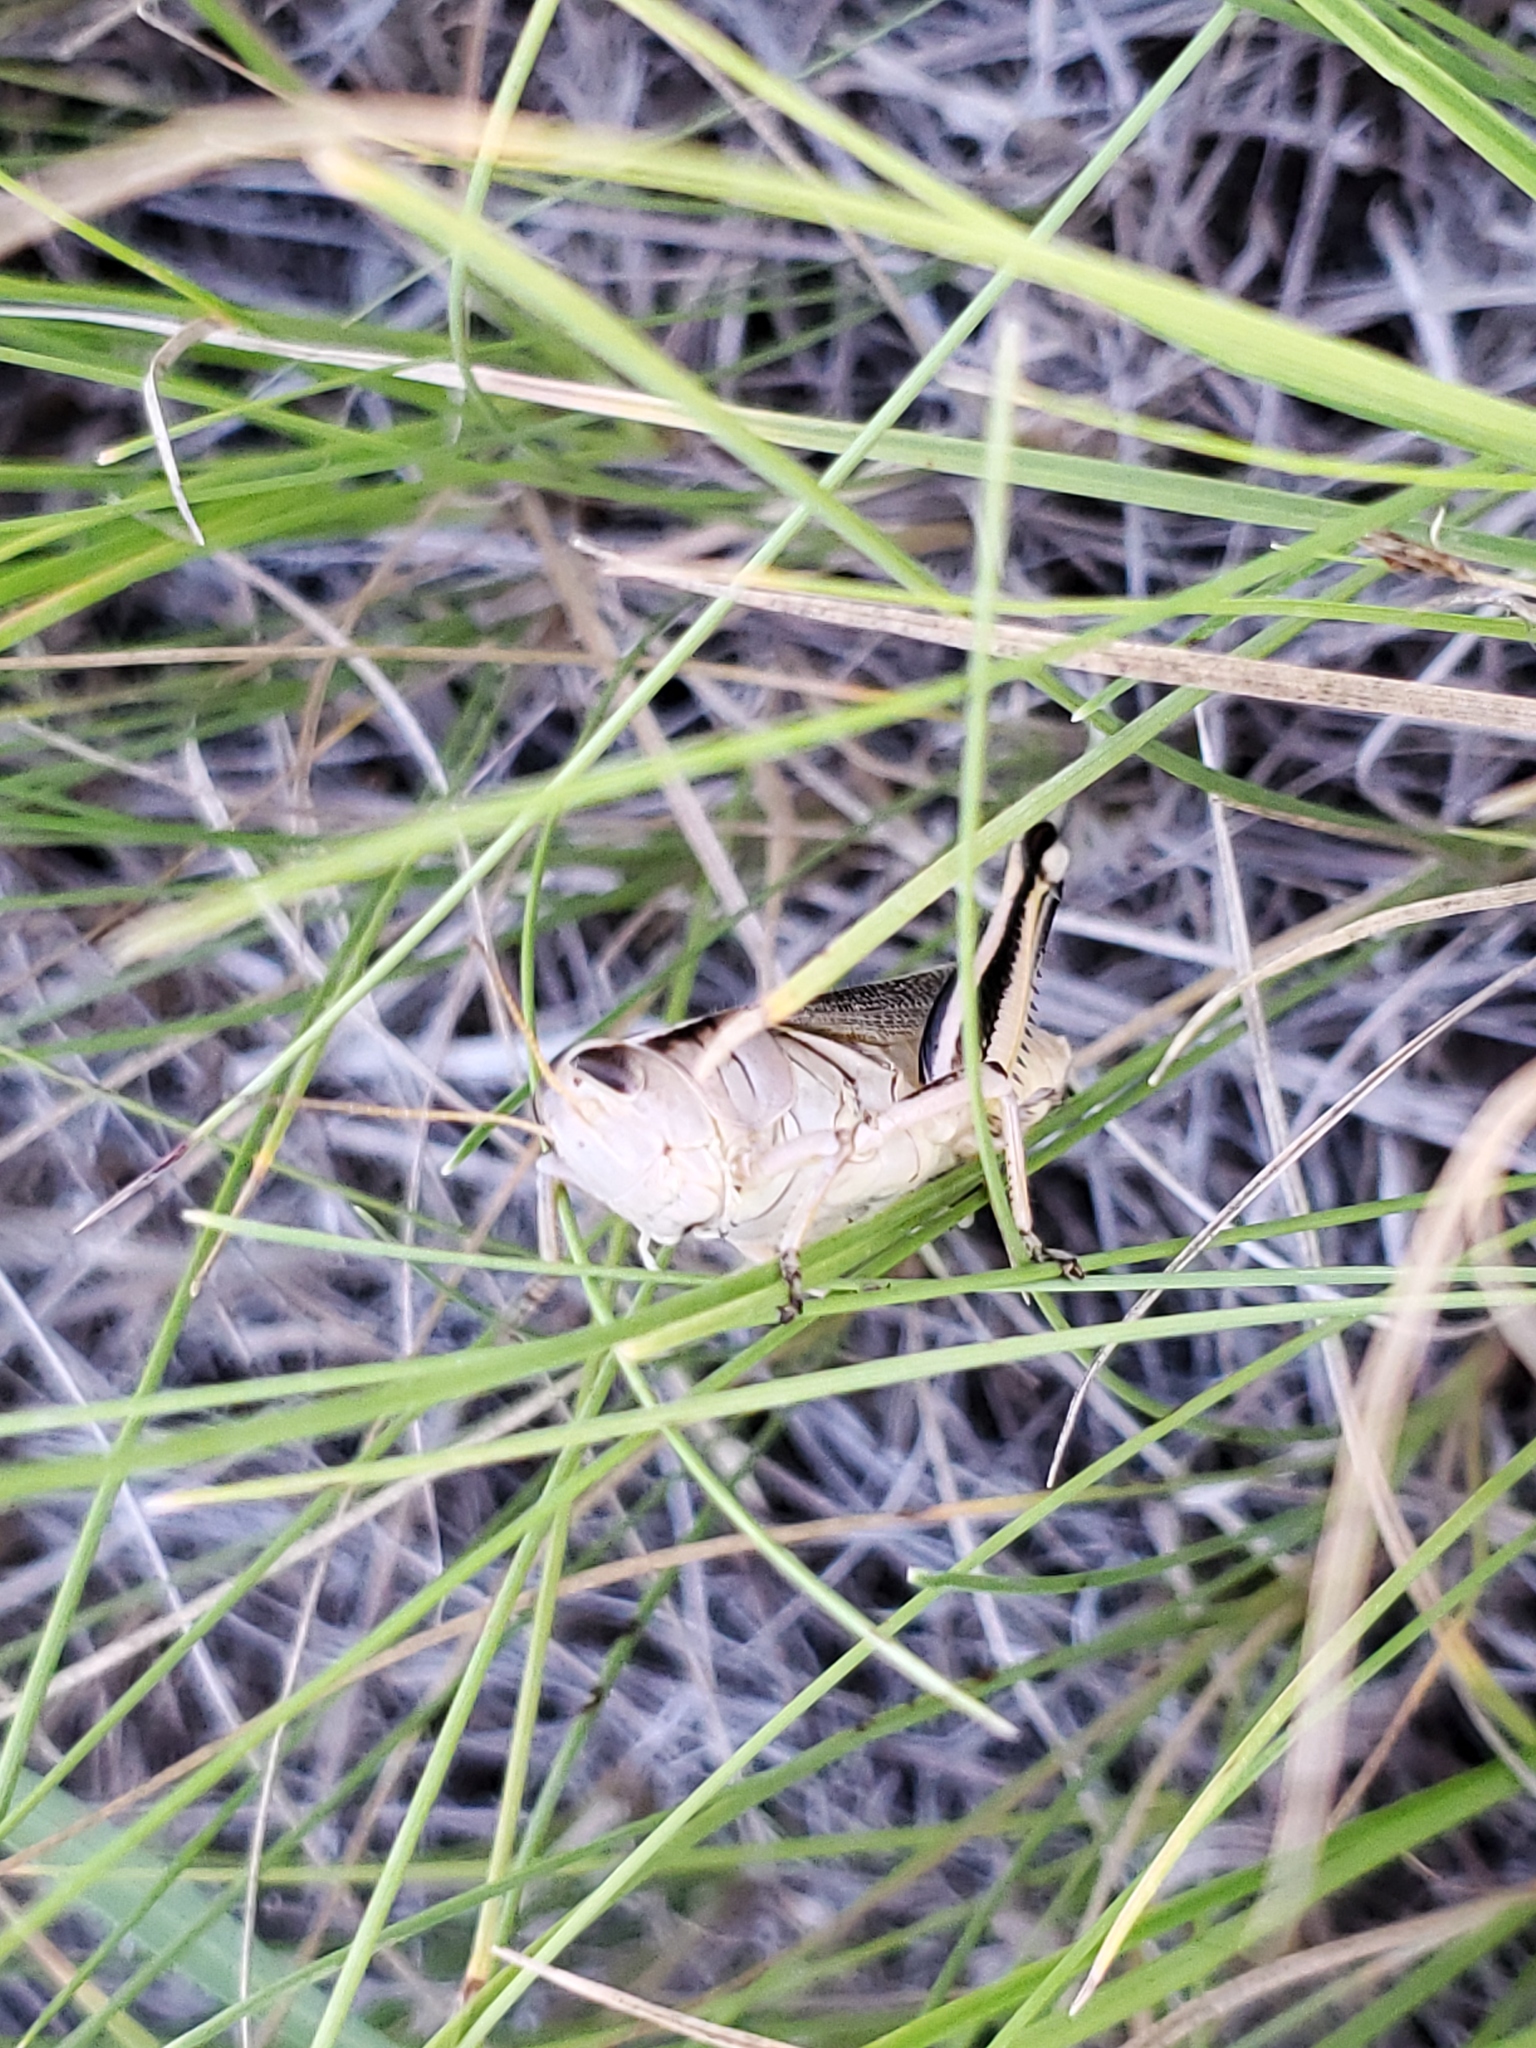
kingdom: Animalia
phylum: Arthropoda
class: Insecta
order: Orthoptera
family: Acrididae
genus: Melanoplus
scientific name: Melanoplus bivittatus
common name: Two-striped grasshopper
